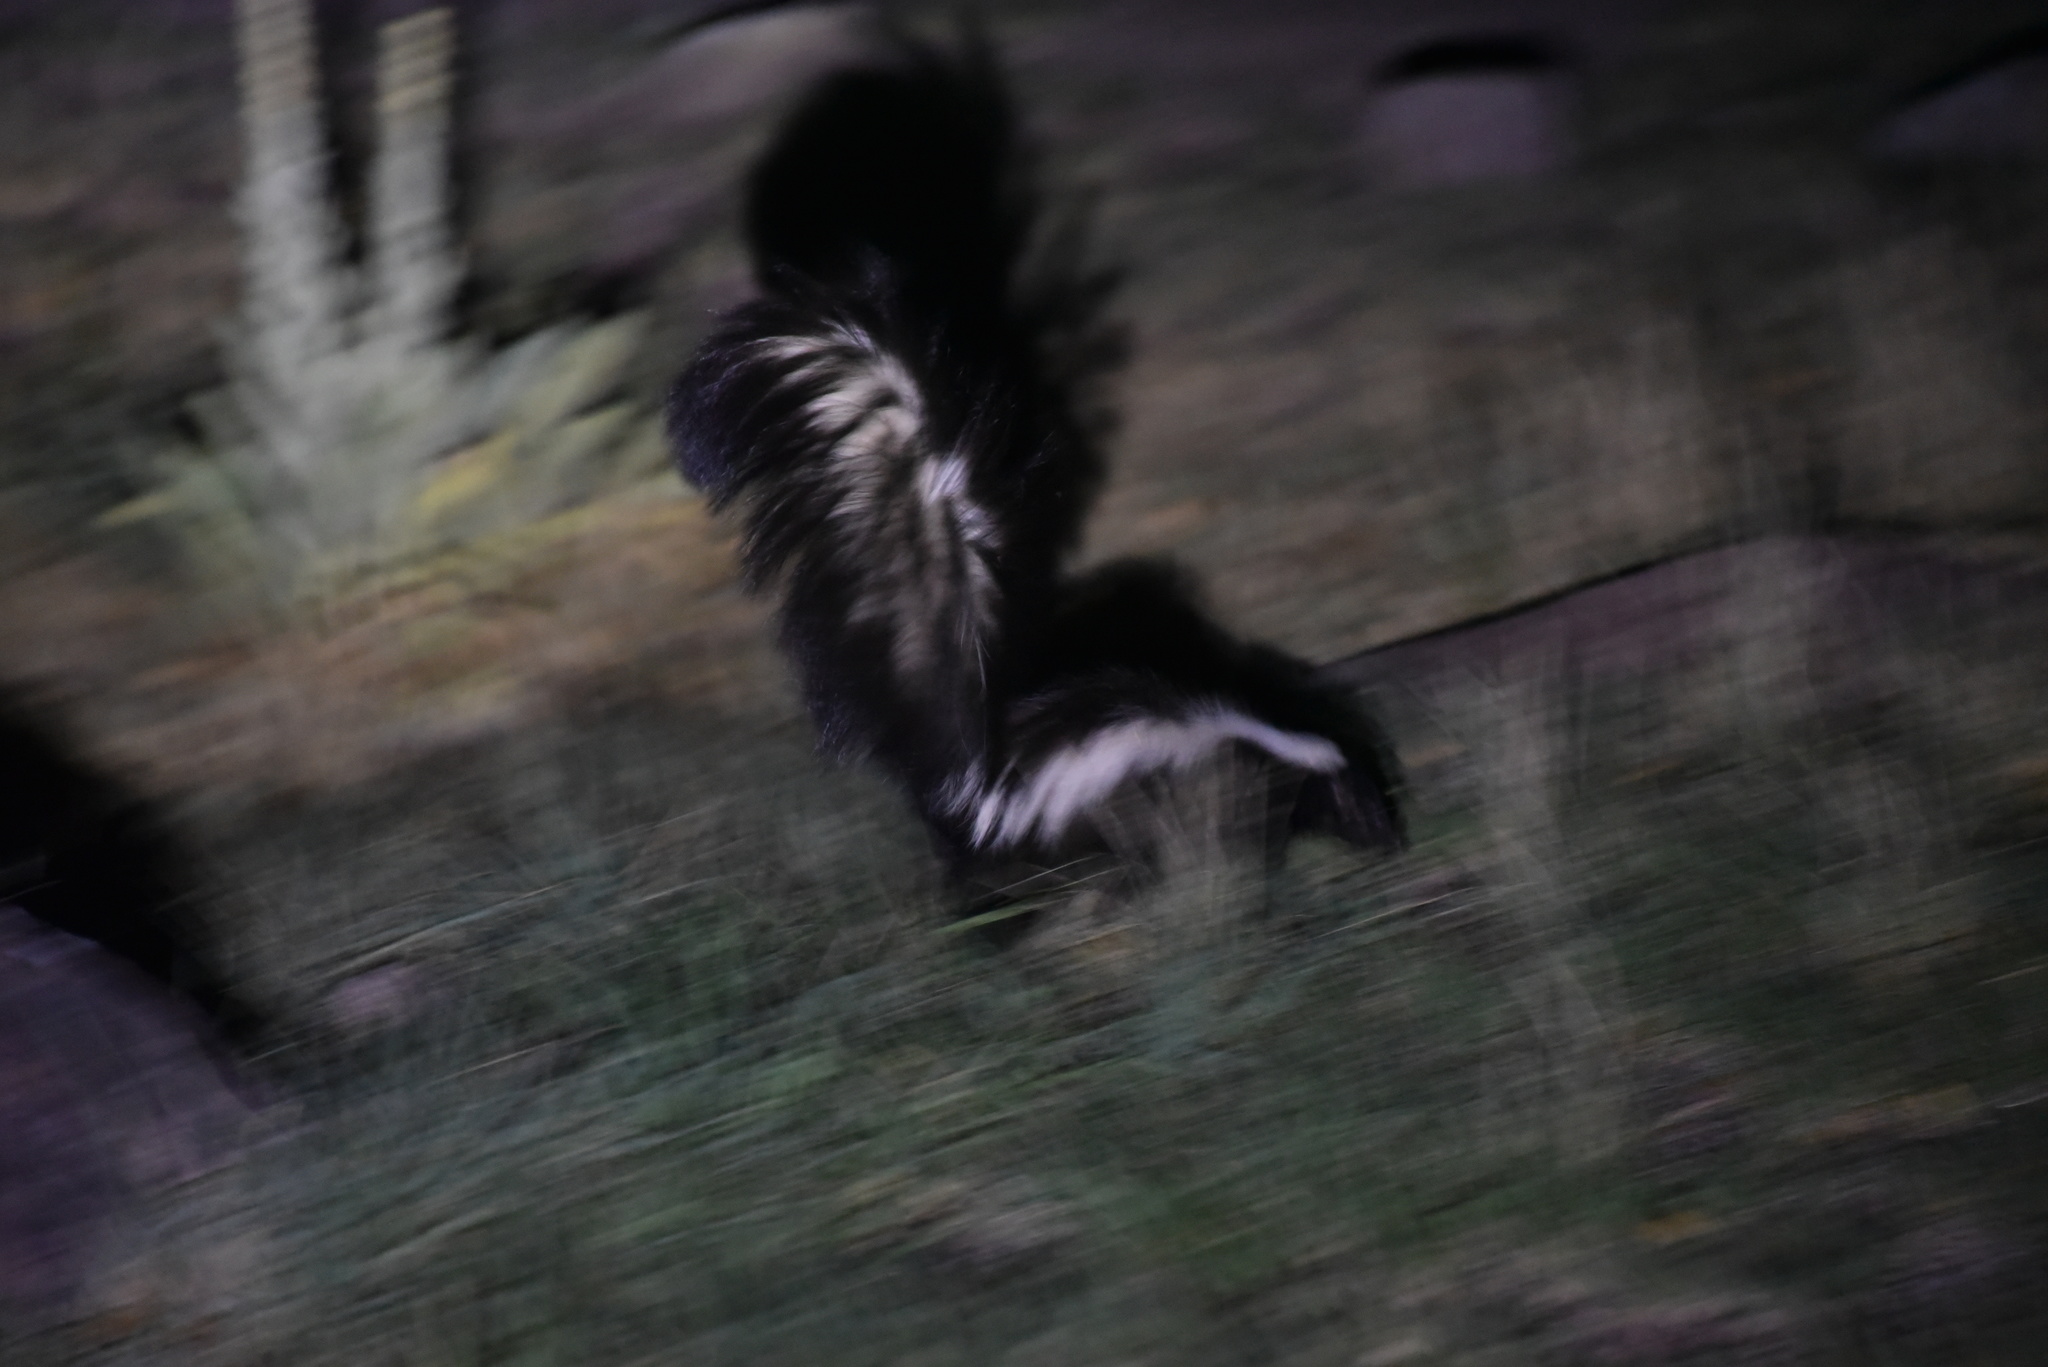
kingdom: Animalia
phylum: Chordata
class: Mammalia
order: Carnivora
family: Mephitidae
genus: Mephitis
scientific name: Mephitis mephitis
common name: Striped skunk
